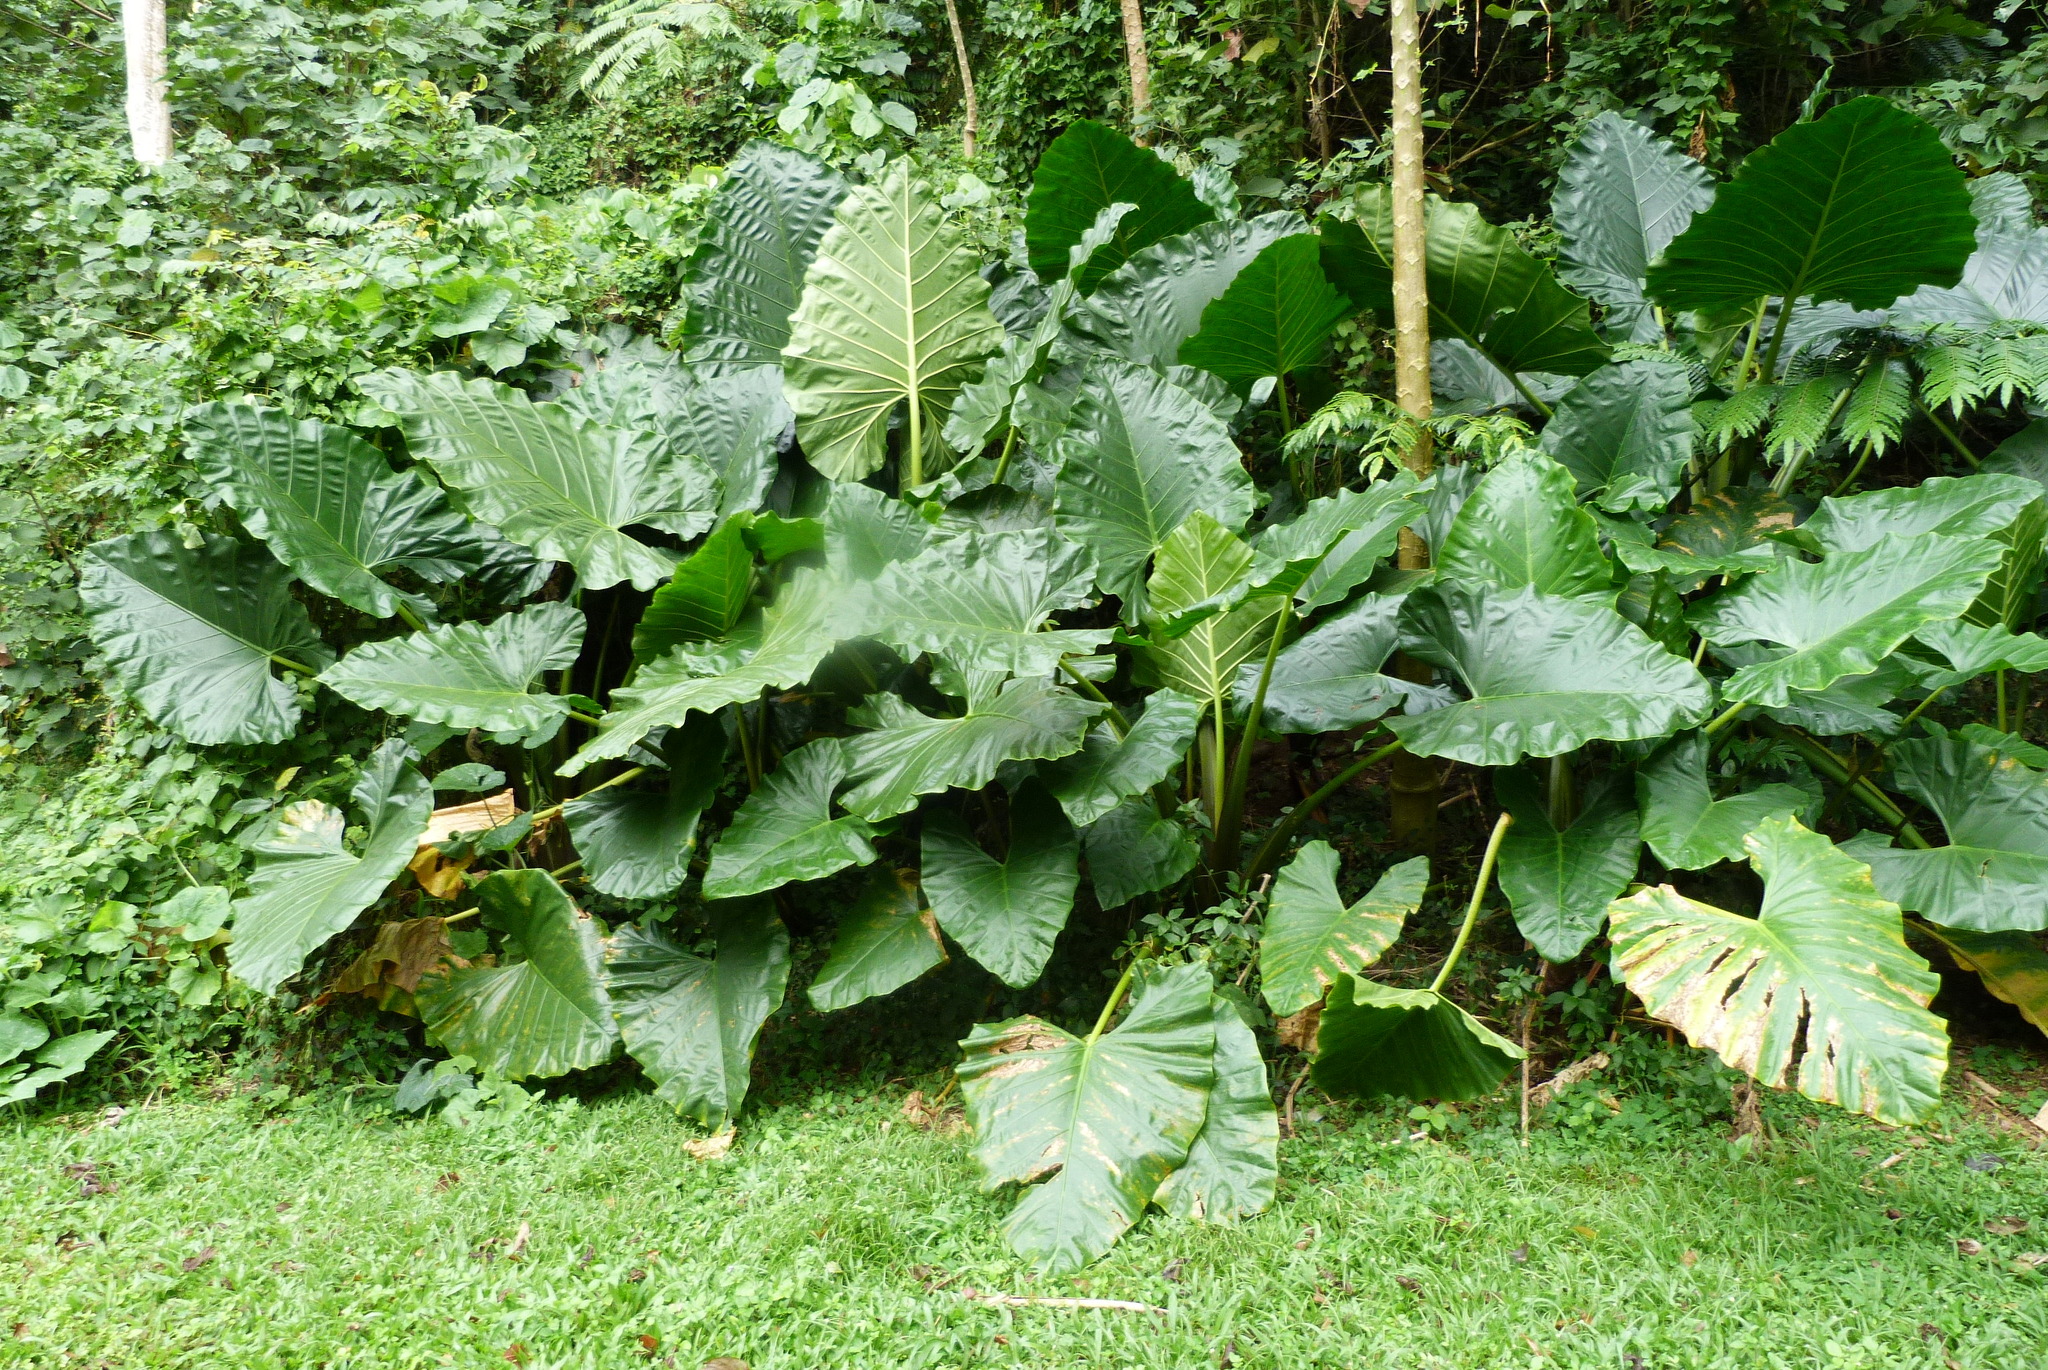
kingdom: Plantae
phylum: Tracheophyta
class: Liliopsida
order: Alismatales
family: Araceae
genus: Alocasia
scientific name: Alocasia macrorrhizos
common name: Giant taro
